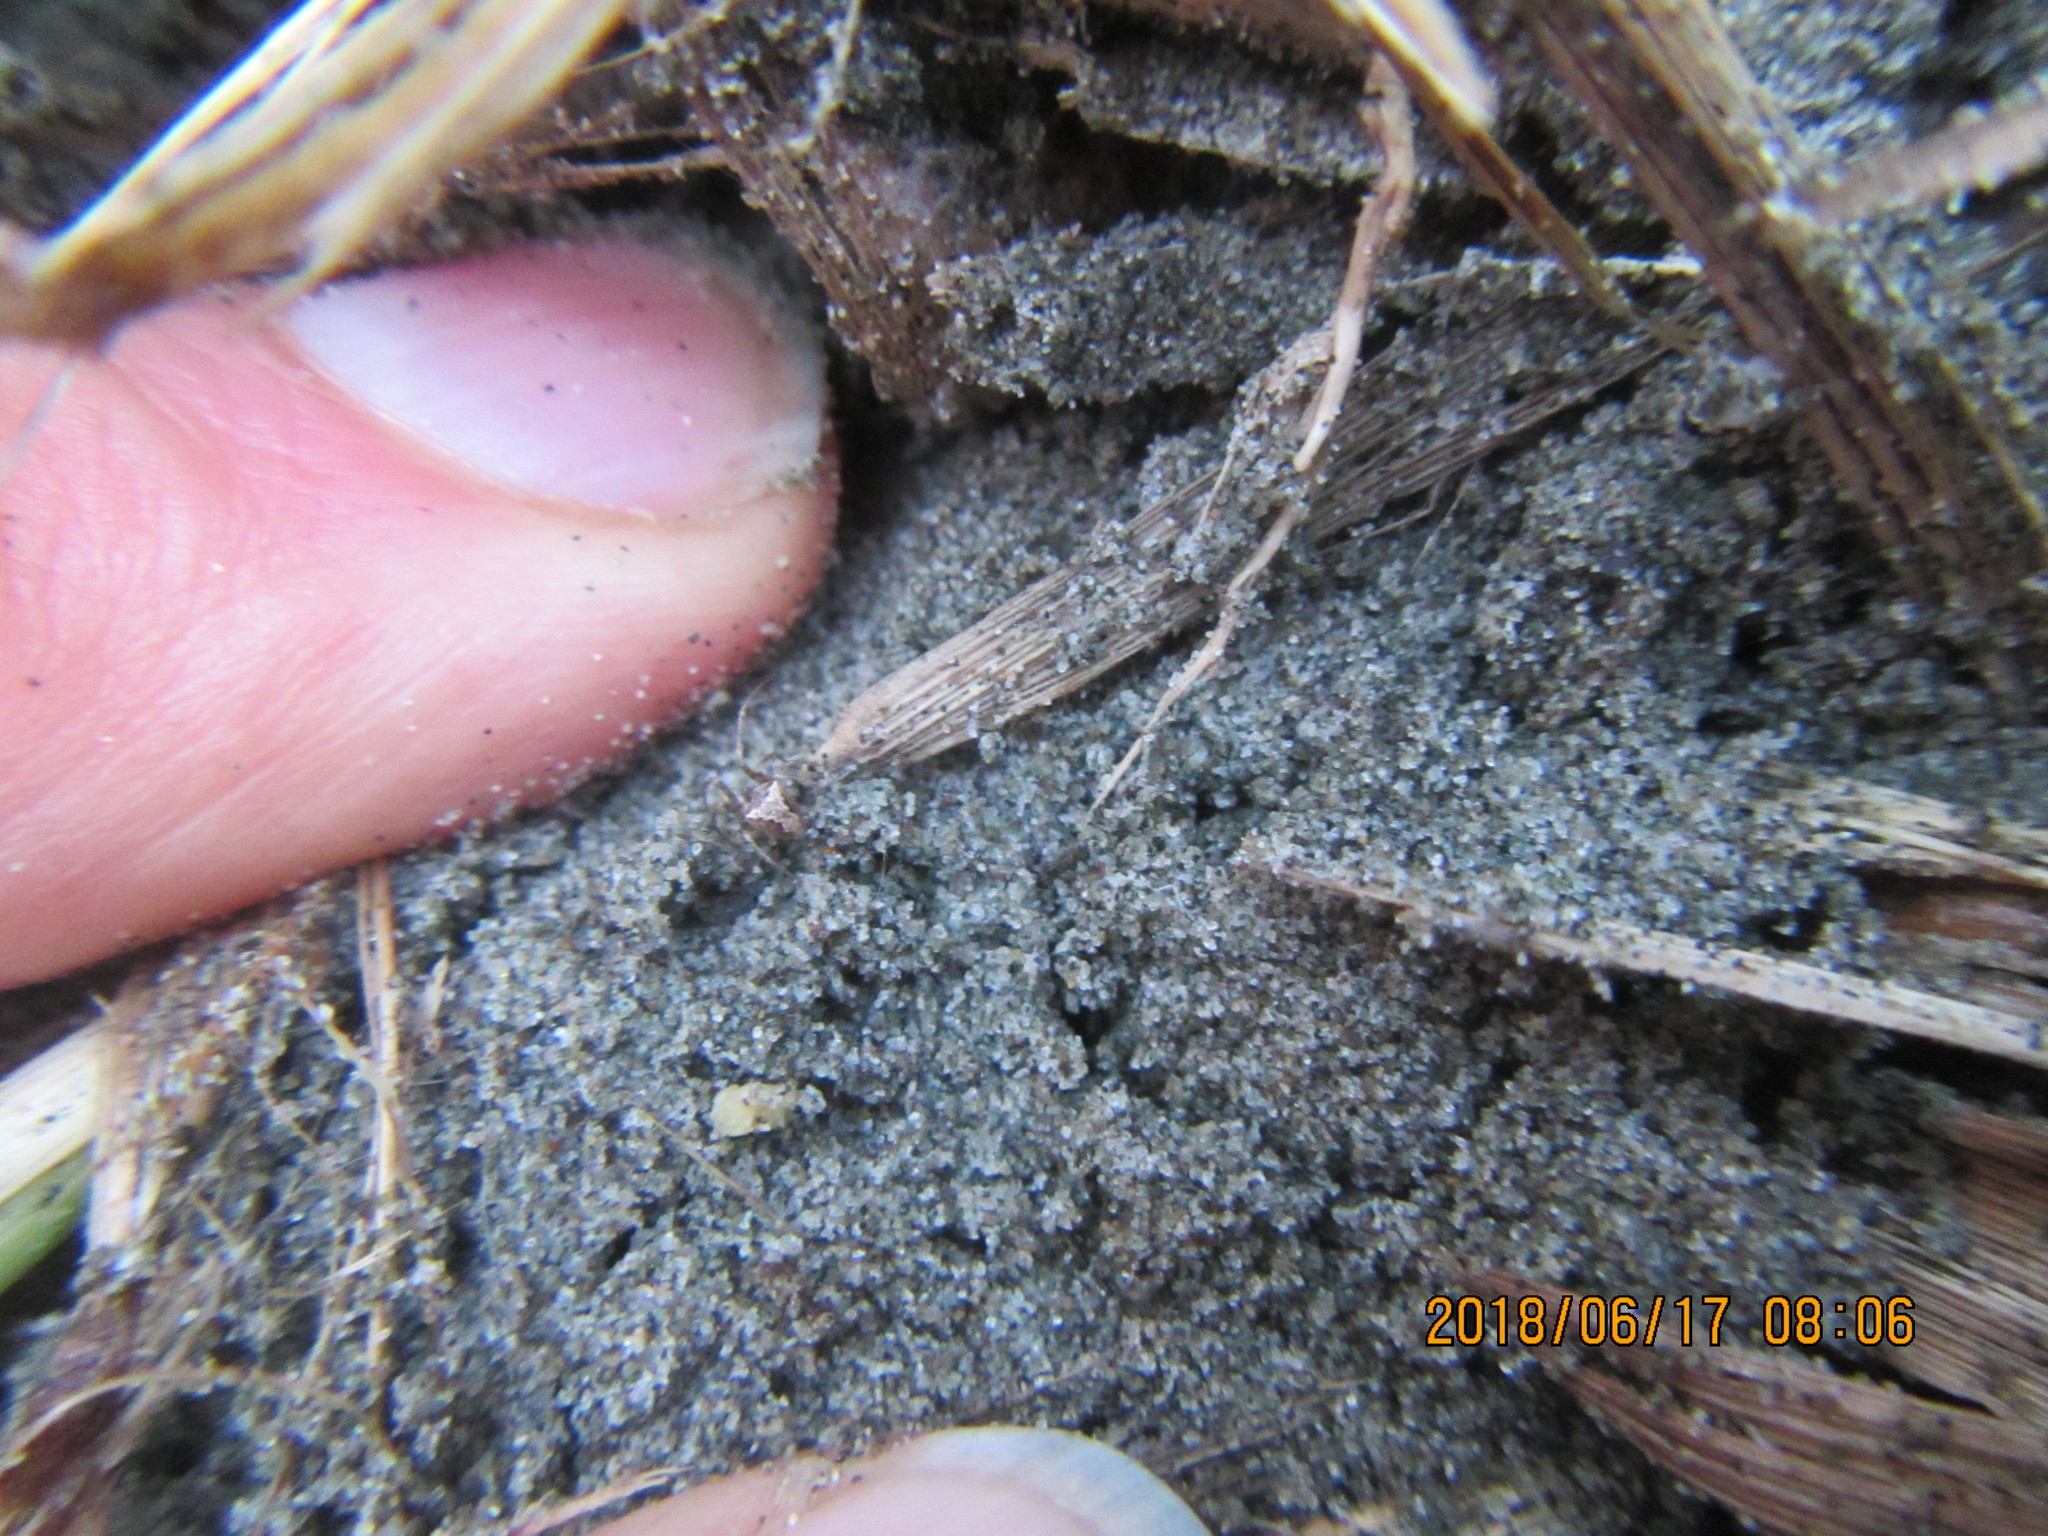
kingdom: Animalia
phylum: Arthropoda
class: Arachnida
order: Araneae
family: Mimetidae
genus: Australomimetus
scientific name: Australomimetus hartleyensis
